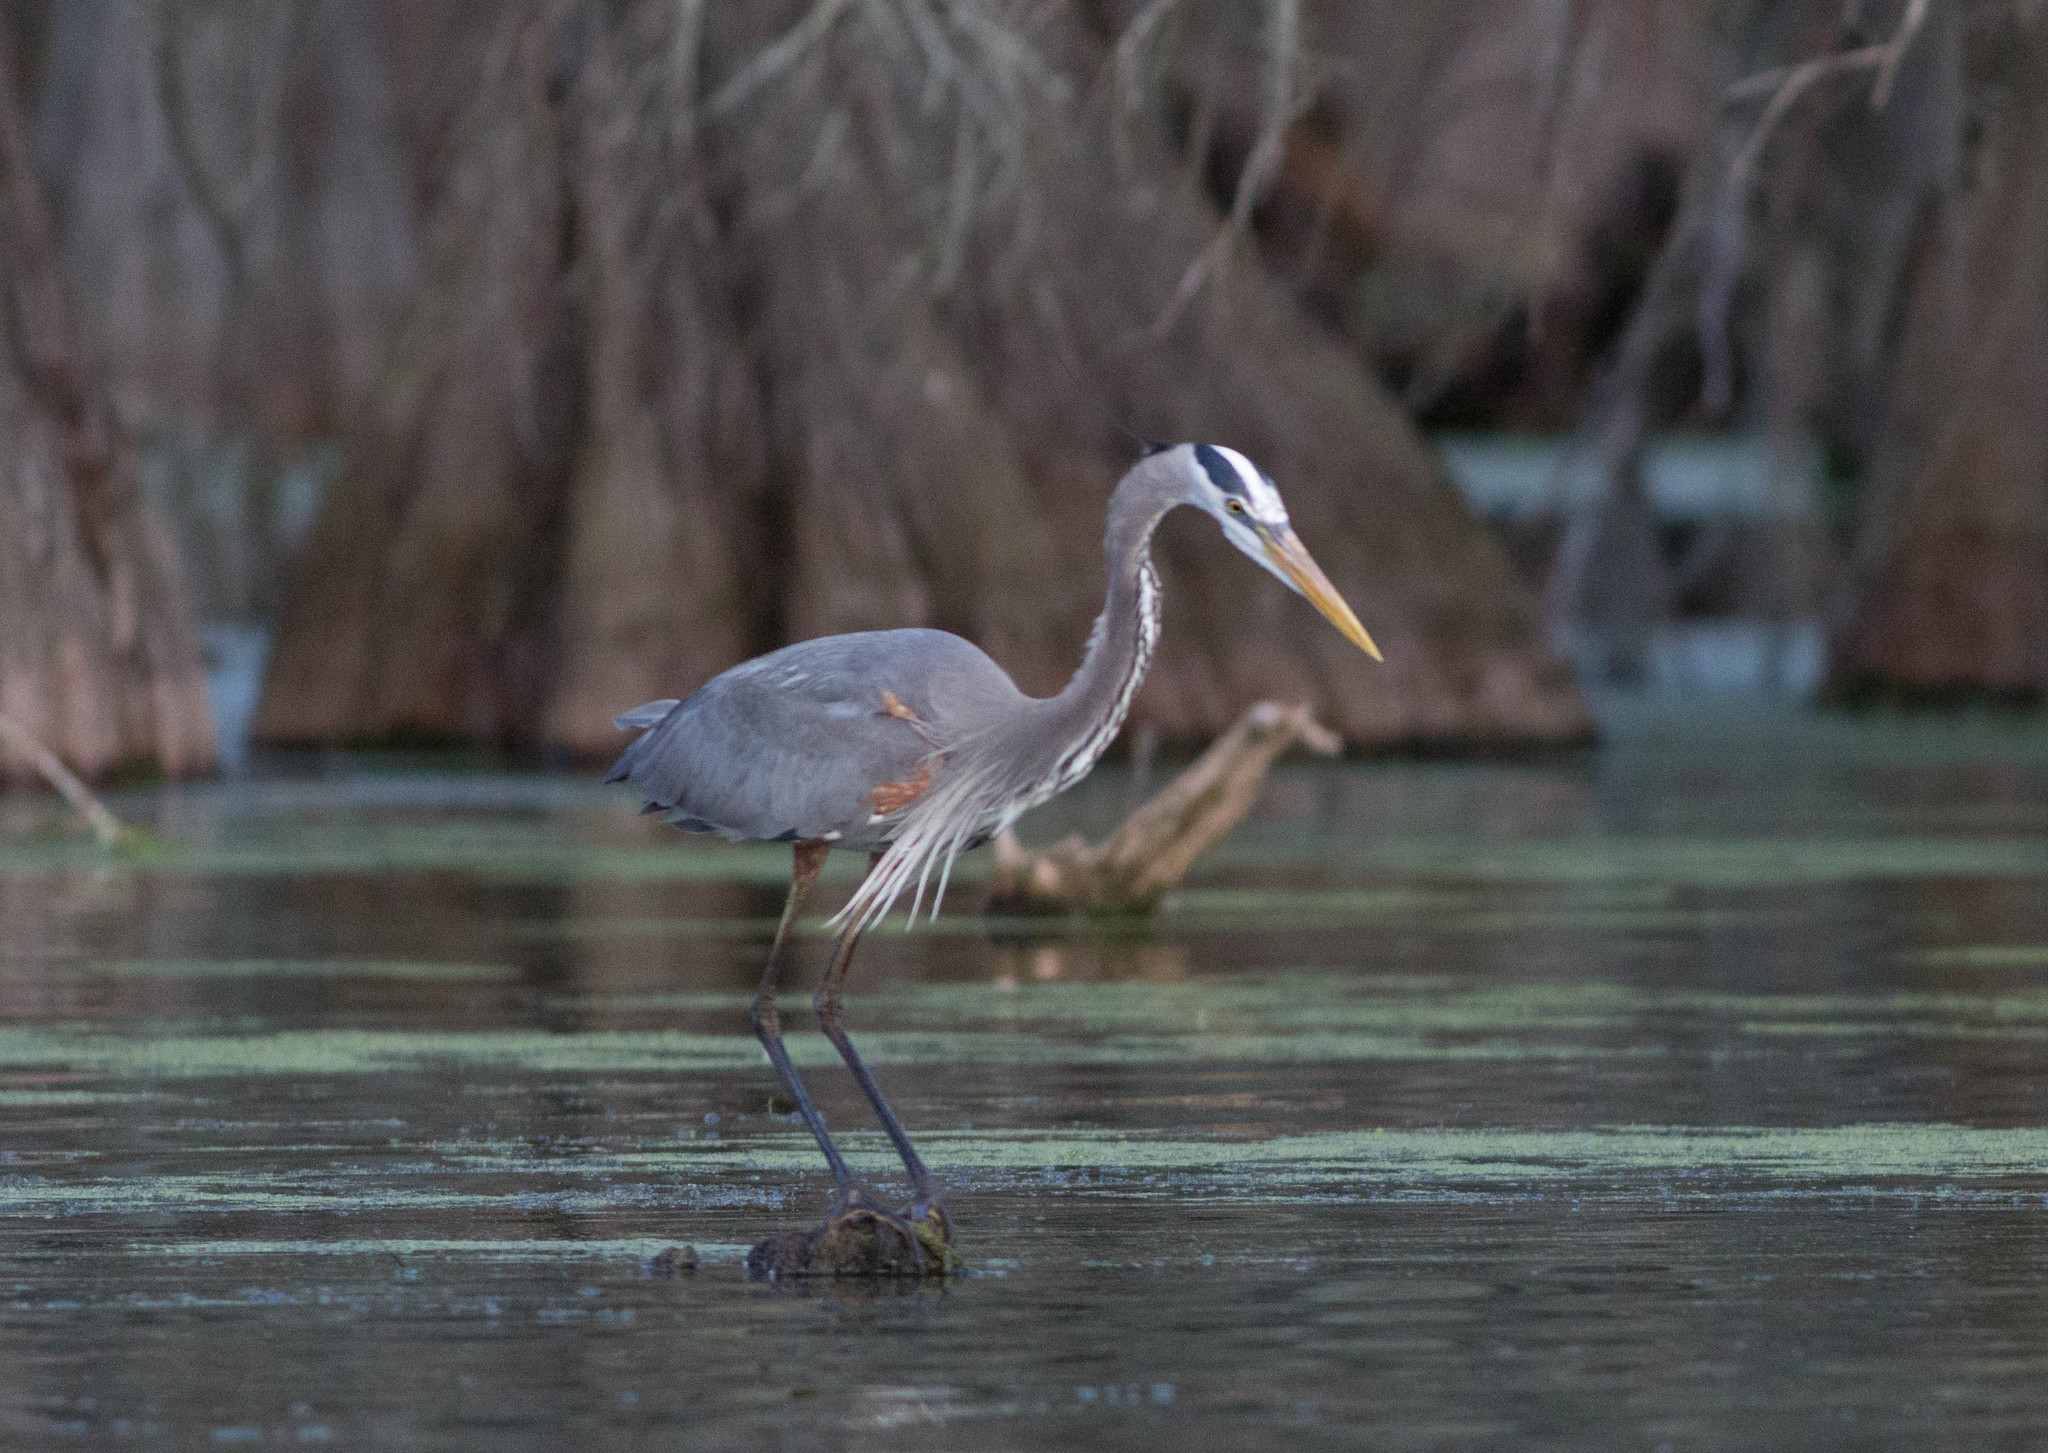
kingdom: Animalia
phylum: Chordata
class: Aves
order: Pelecaniformes
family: Ardeidae
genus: Ardea
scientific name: Ardea herodias
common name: Great blue heron
